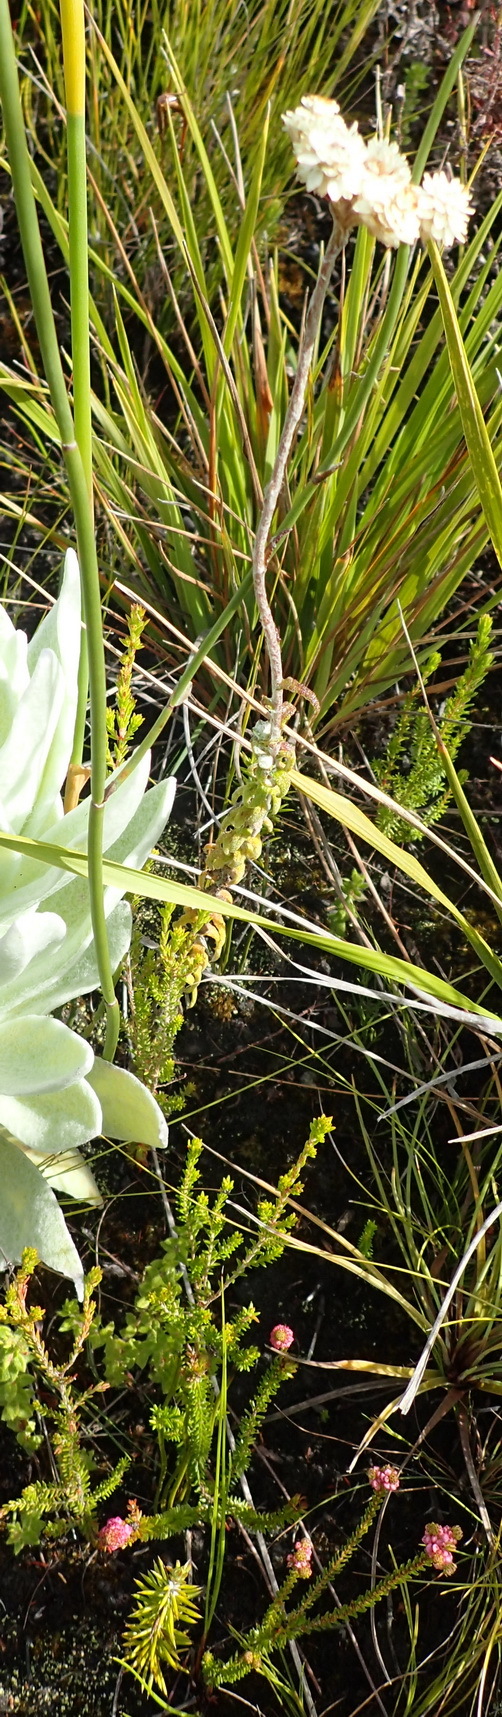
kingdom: Plantae
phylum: Tracheophyta
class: Magnoliopsida
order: Asterales
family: Asteraceae
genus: Helichrysum
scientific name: Helichrysum felinum
